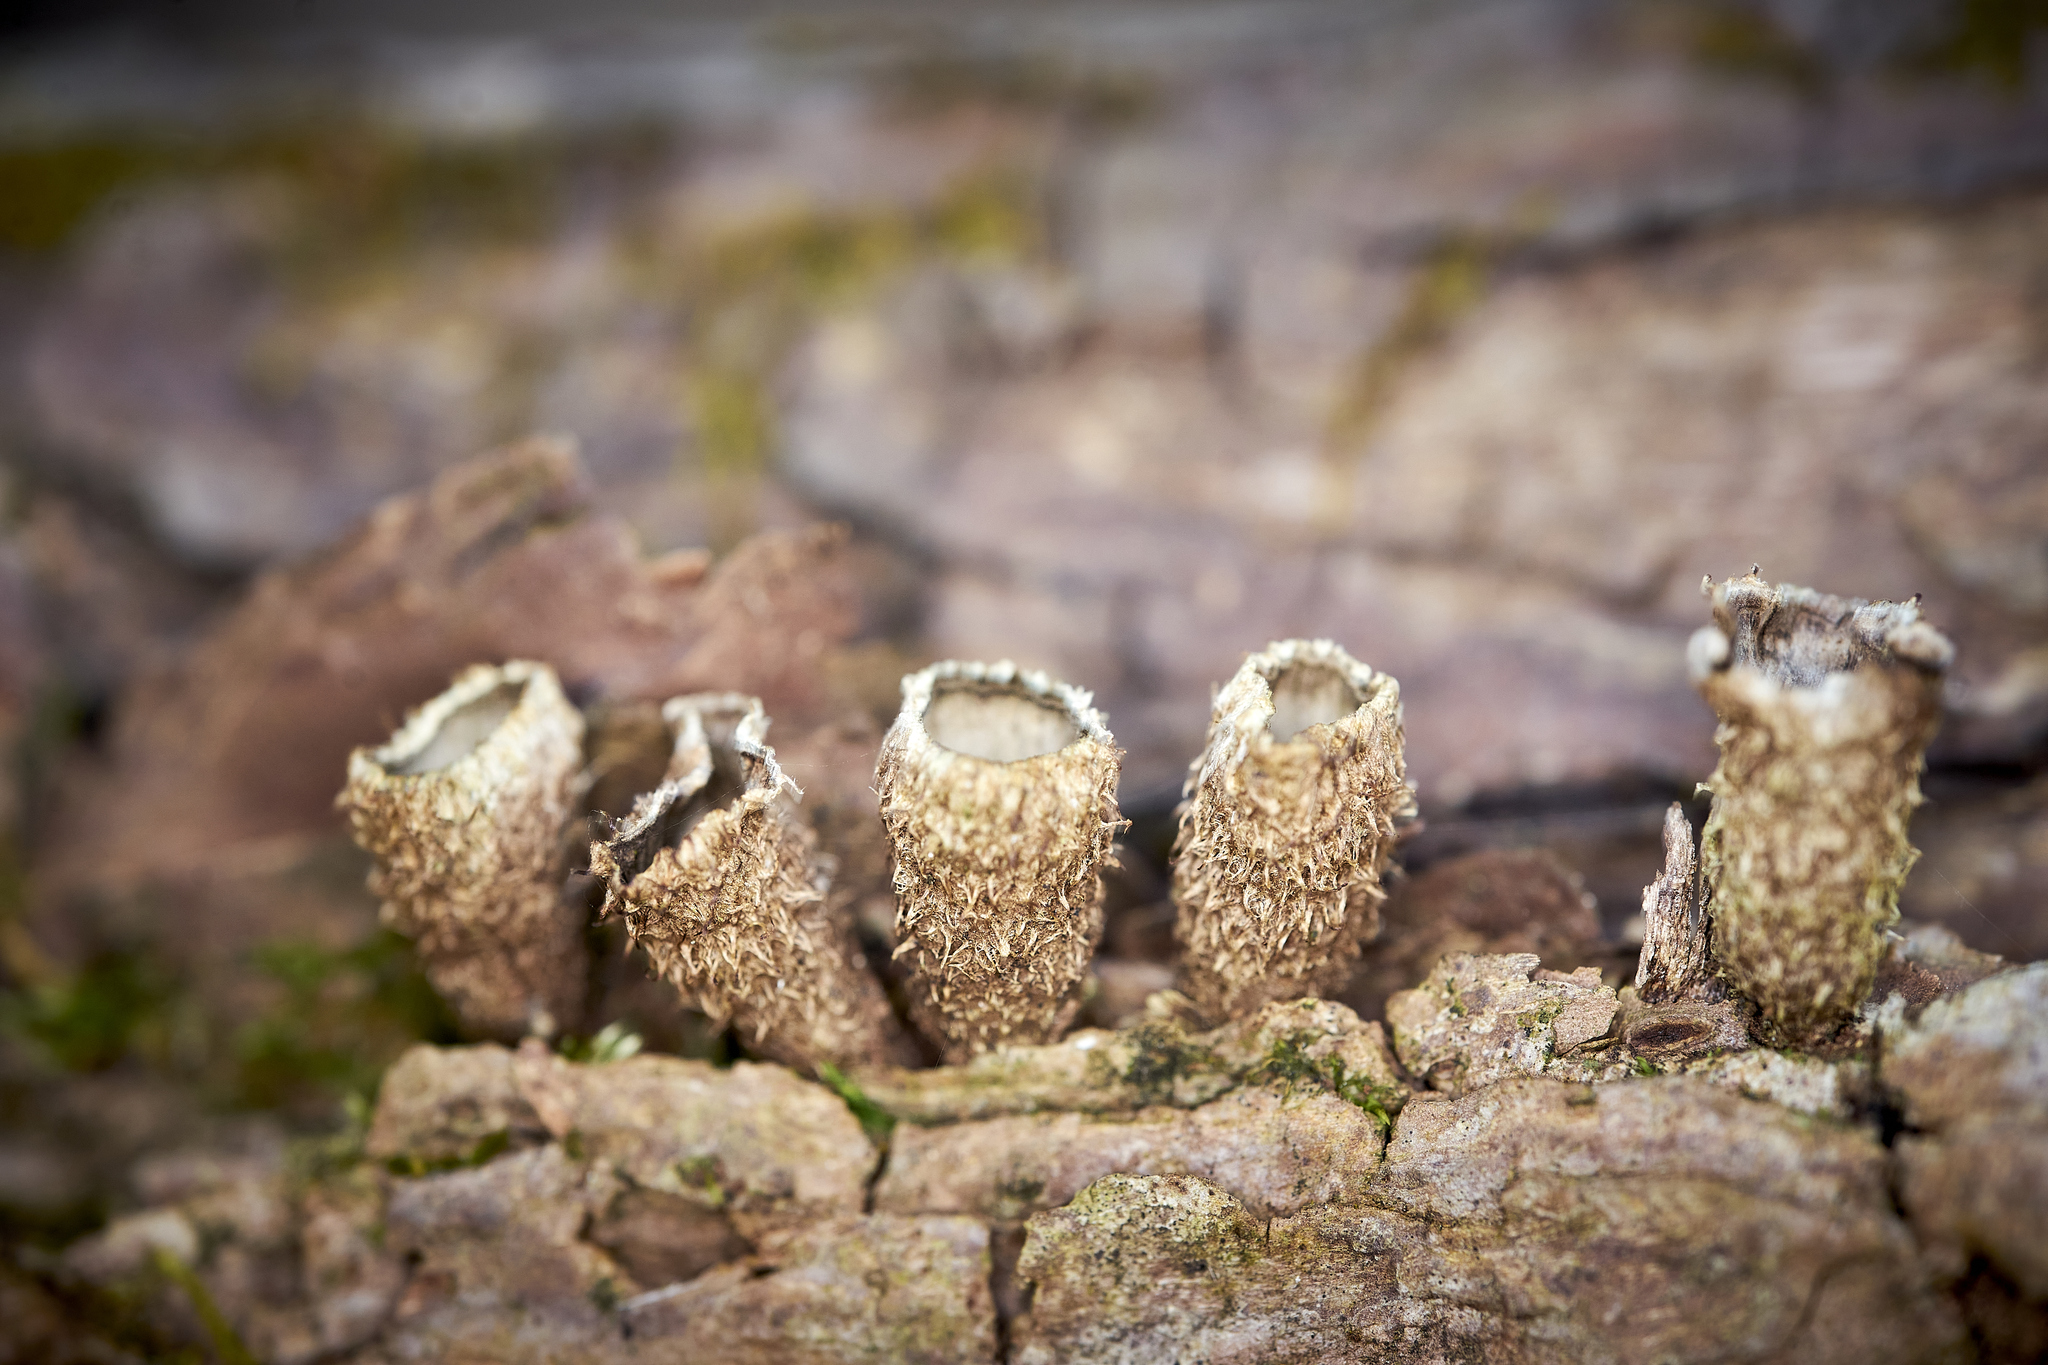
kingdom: Fungi
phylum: Basidiomycota
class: Agaricomycetes
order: Agaricales
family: Agaricaceae
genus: Cyathus
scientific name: Cyathus striatus
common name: Fluted bird's nest
